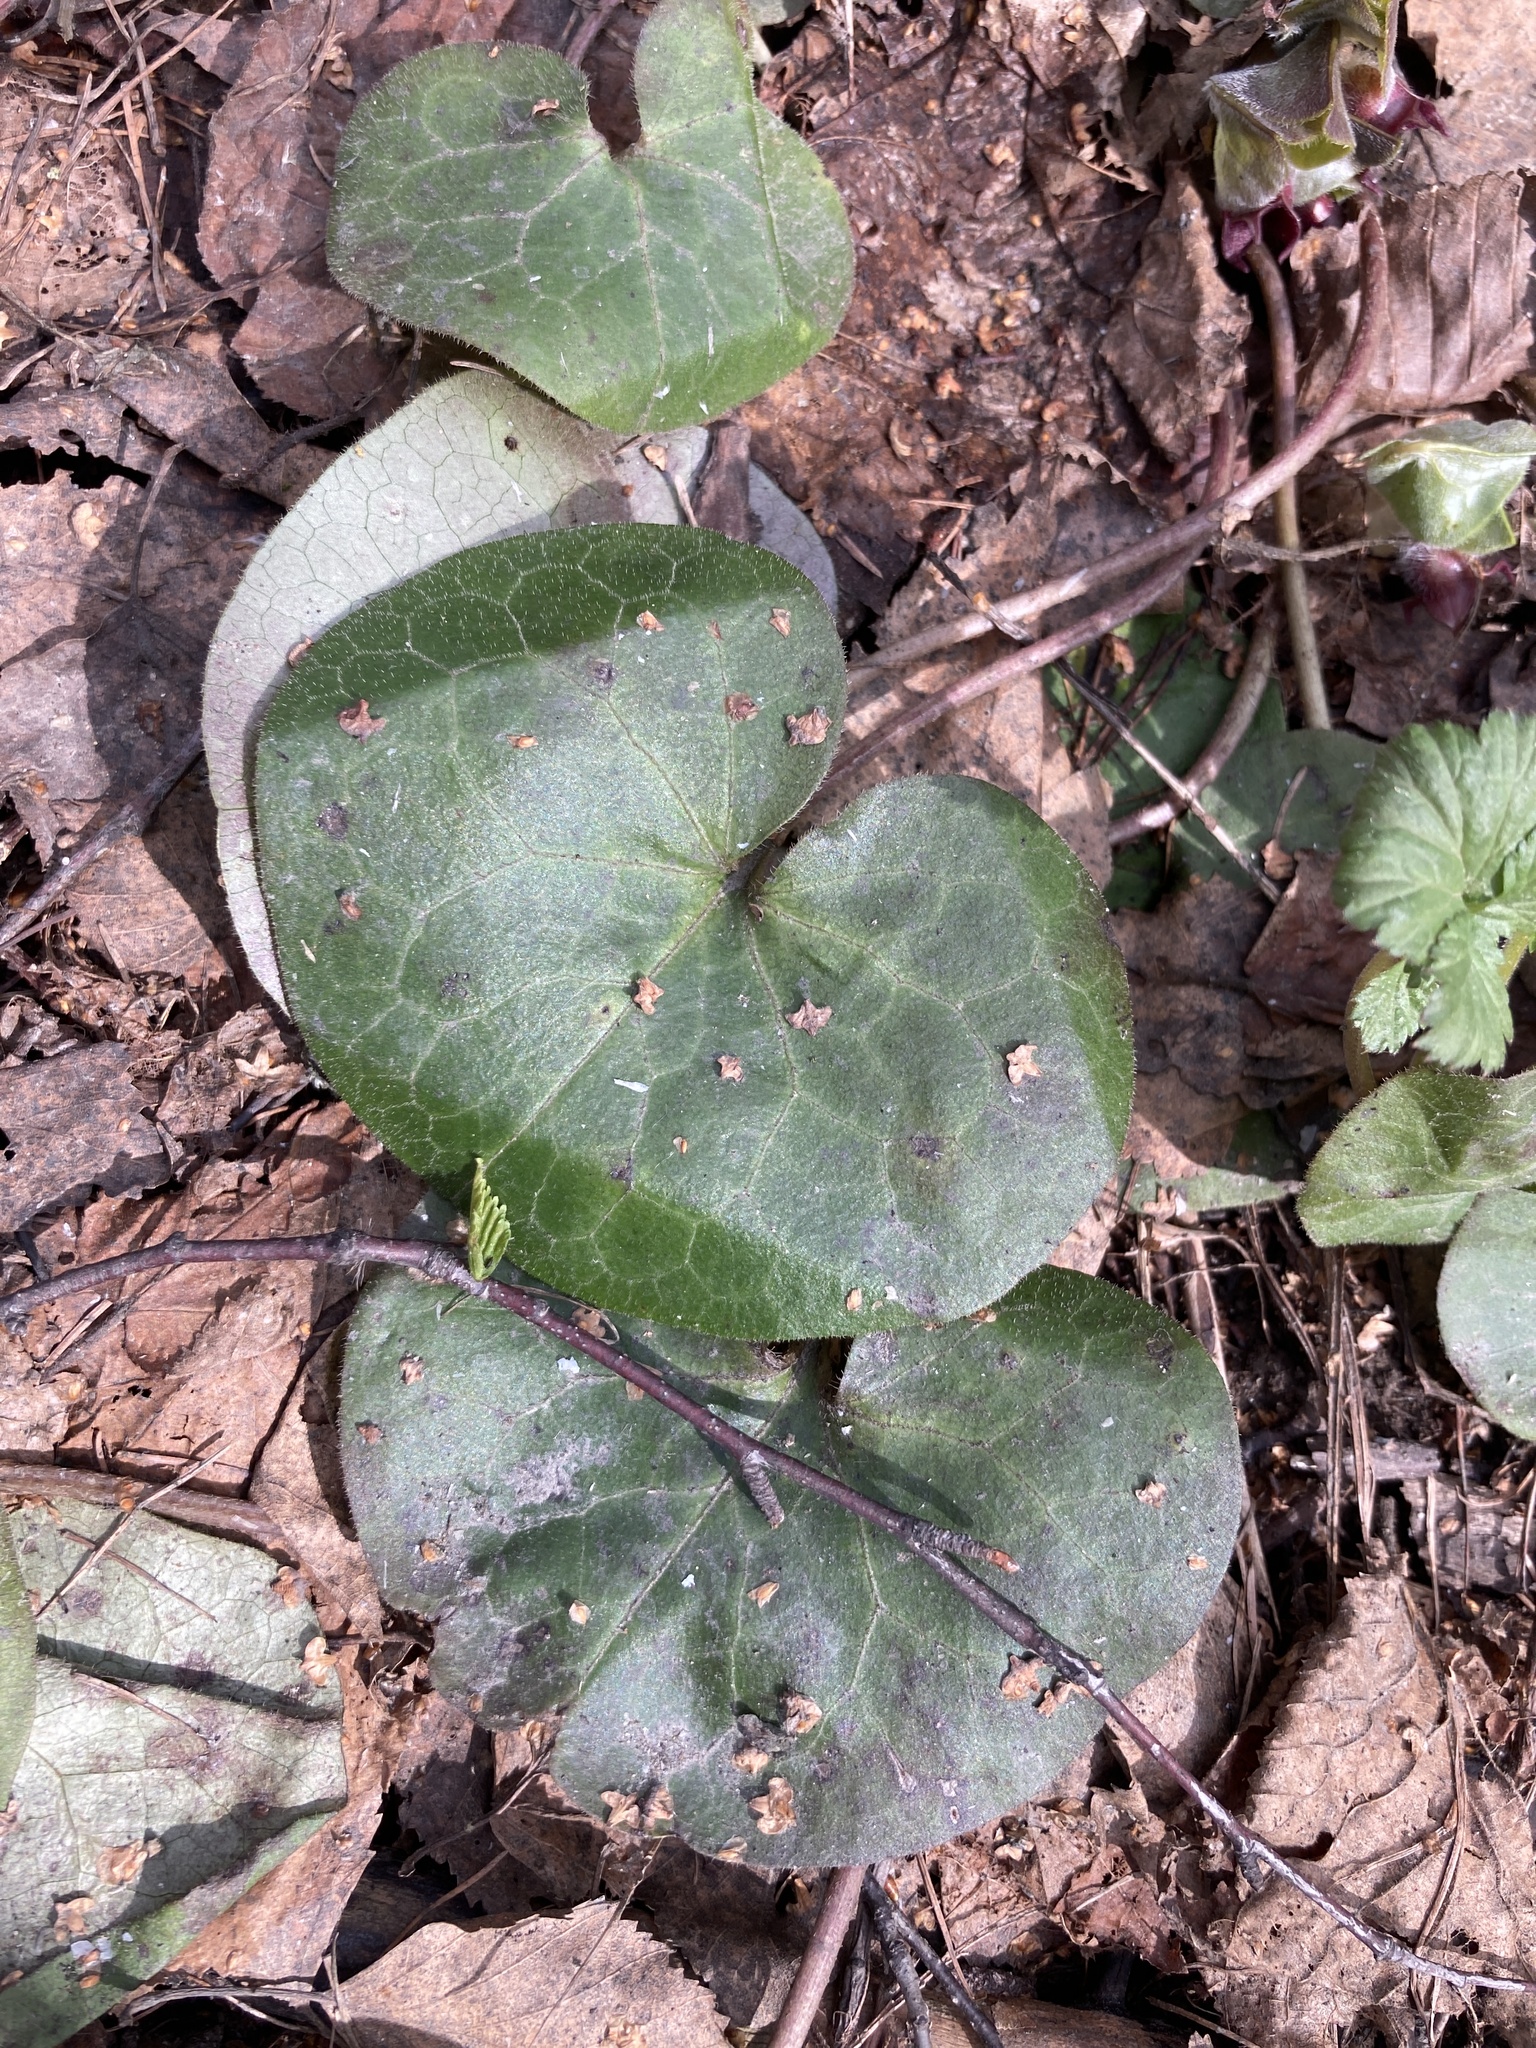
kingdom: Plantae
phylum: Tracheophyta
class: Magnoliopsida
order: Piperales
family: Aristolochiaceae
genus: Asarum
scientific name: Asarum europaeum
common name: Asarabacca
